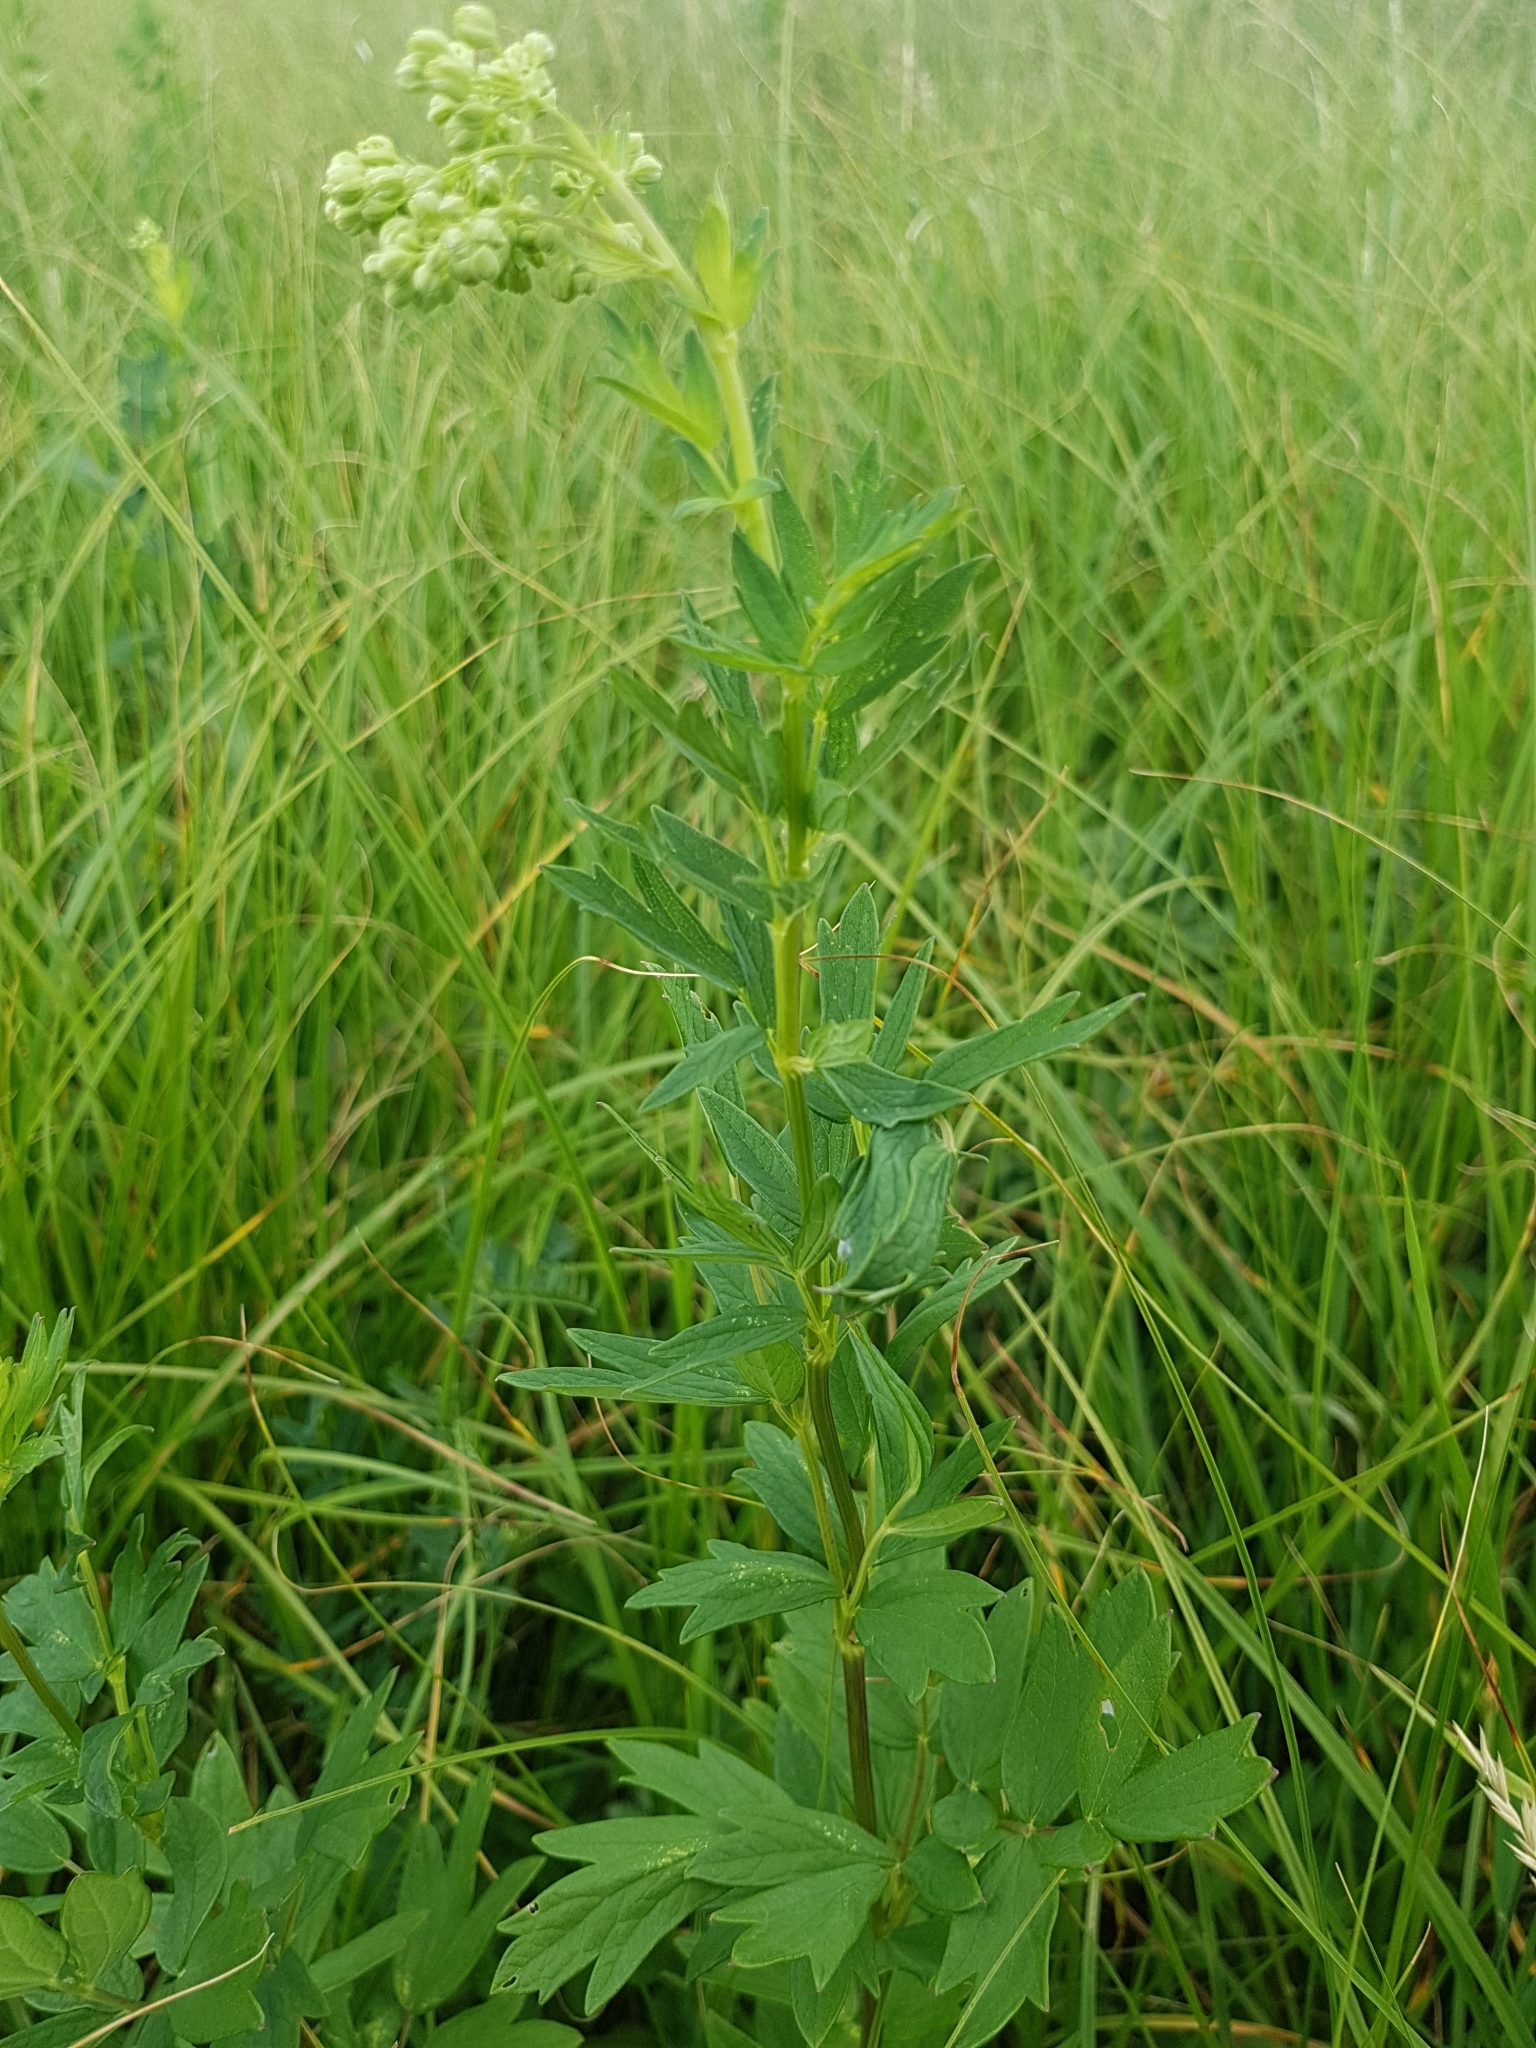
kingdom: Plantae
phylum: Tracheophyta
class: Magnoliopsida
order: Ranunculales
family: Ranunculaceae
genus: Thalictrum
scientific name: Thalictrum flavum
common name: Common meadow-rue
